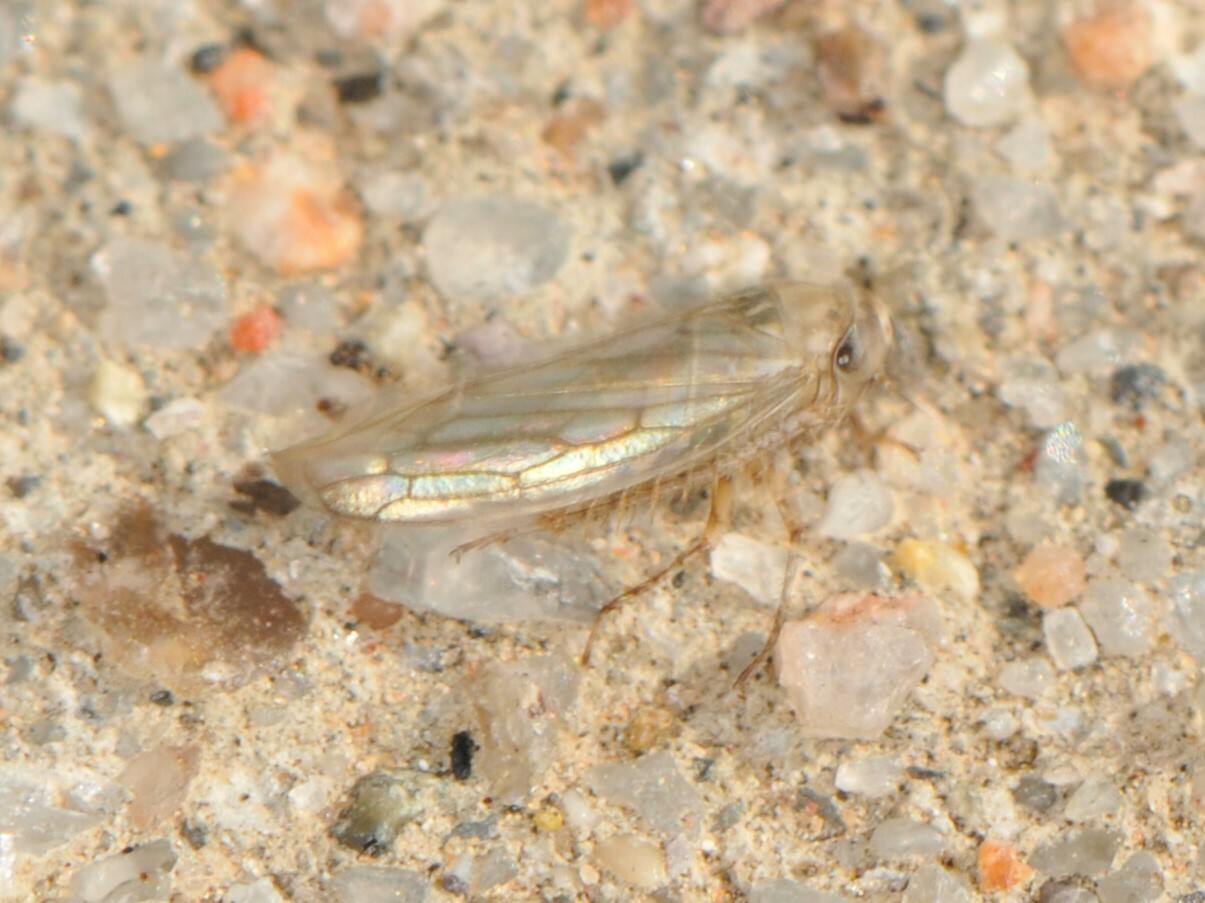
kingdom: Animalia
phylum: Arthropoda
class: Insecta
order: Hemiptera
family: Cicadellidae
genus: Exitianus
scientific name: Exitianus
